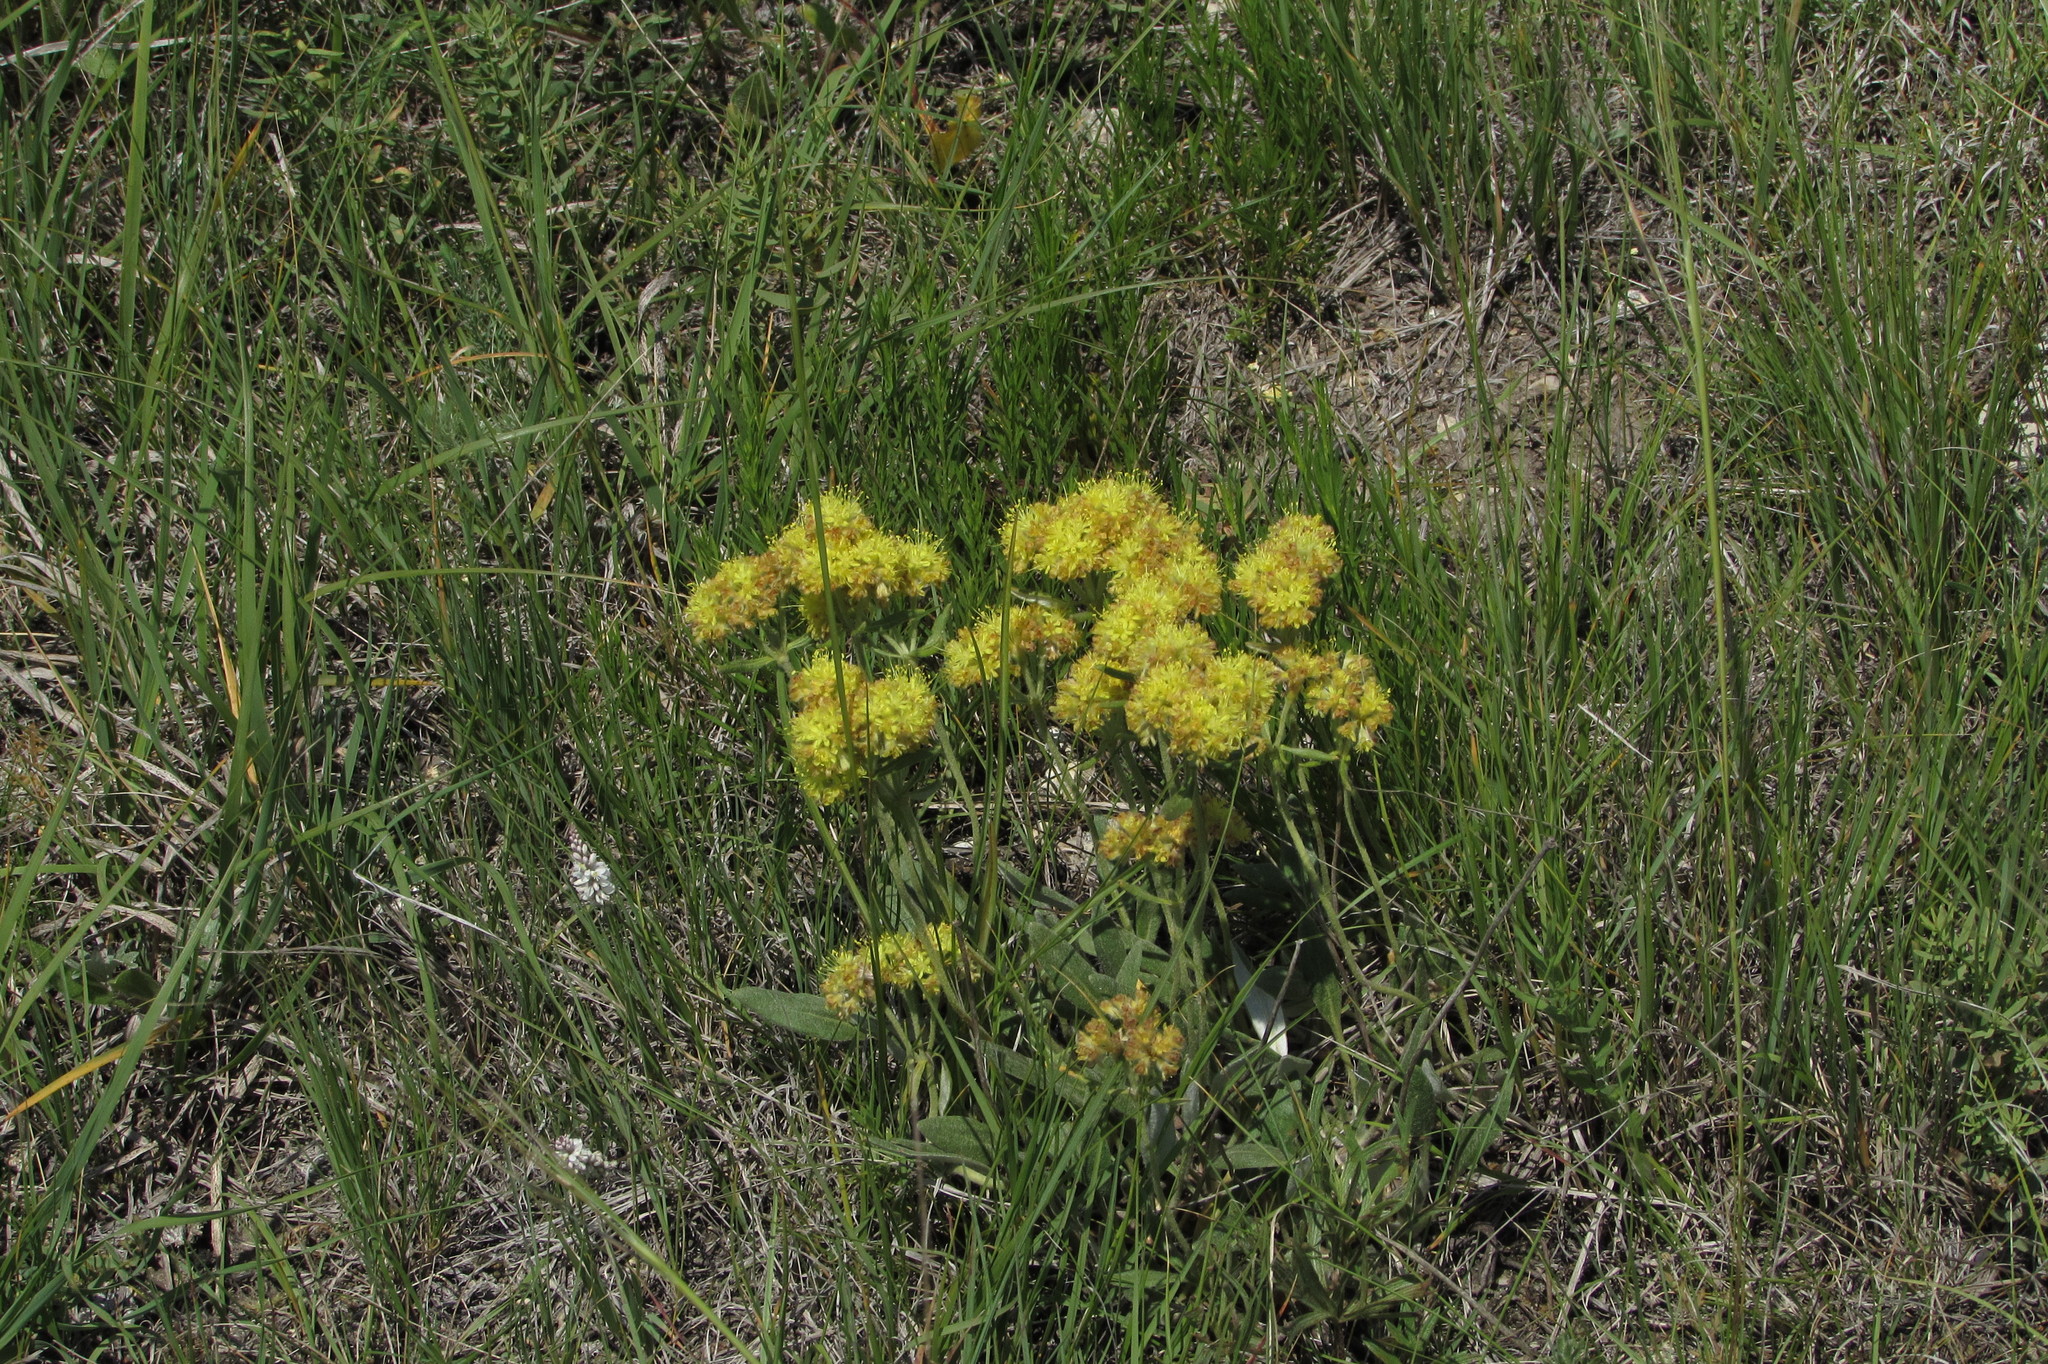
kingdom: Plantae
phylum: Tracheophyta
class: Magnoliopsida
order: Caryophyllales
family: Polygonaceae
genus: Eriogonum
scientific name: Eriogonum flavum
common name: Alpine golden wild buckwheat
